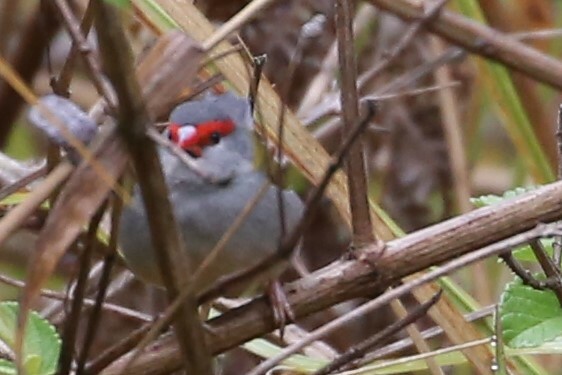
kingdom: Animalia
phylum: Chordata
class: Aves
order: Passeriformes
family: Estrildidae
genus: Neochmia
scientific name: Neochmia temporalis
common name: Red-browed finch
